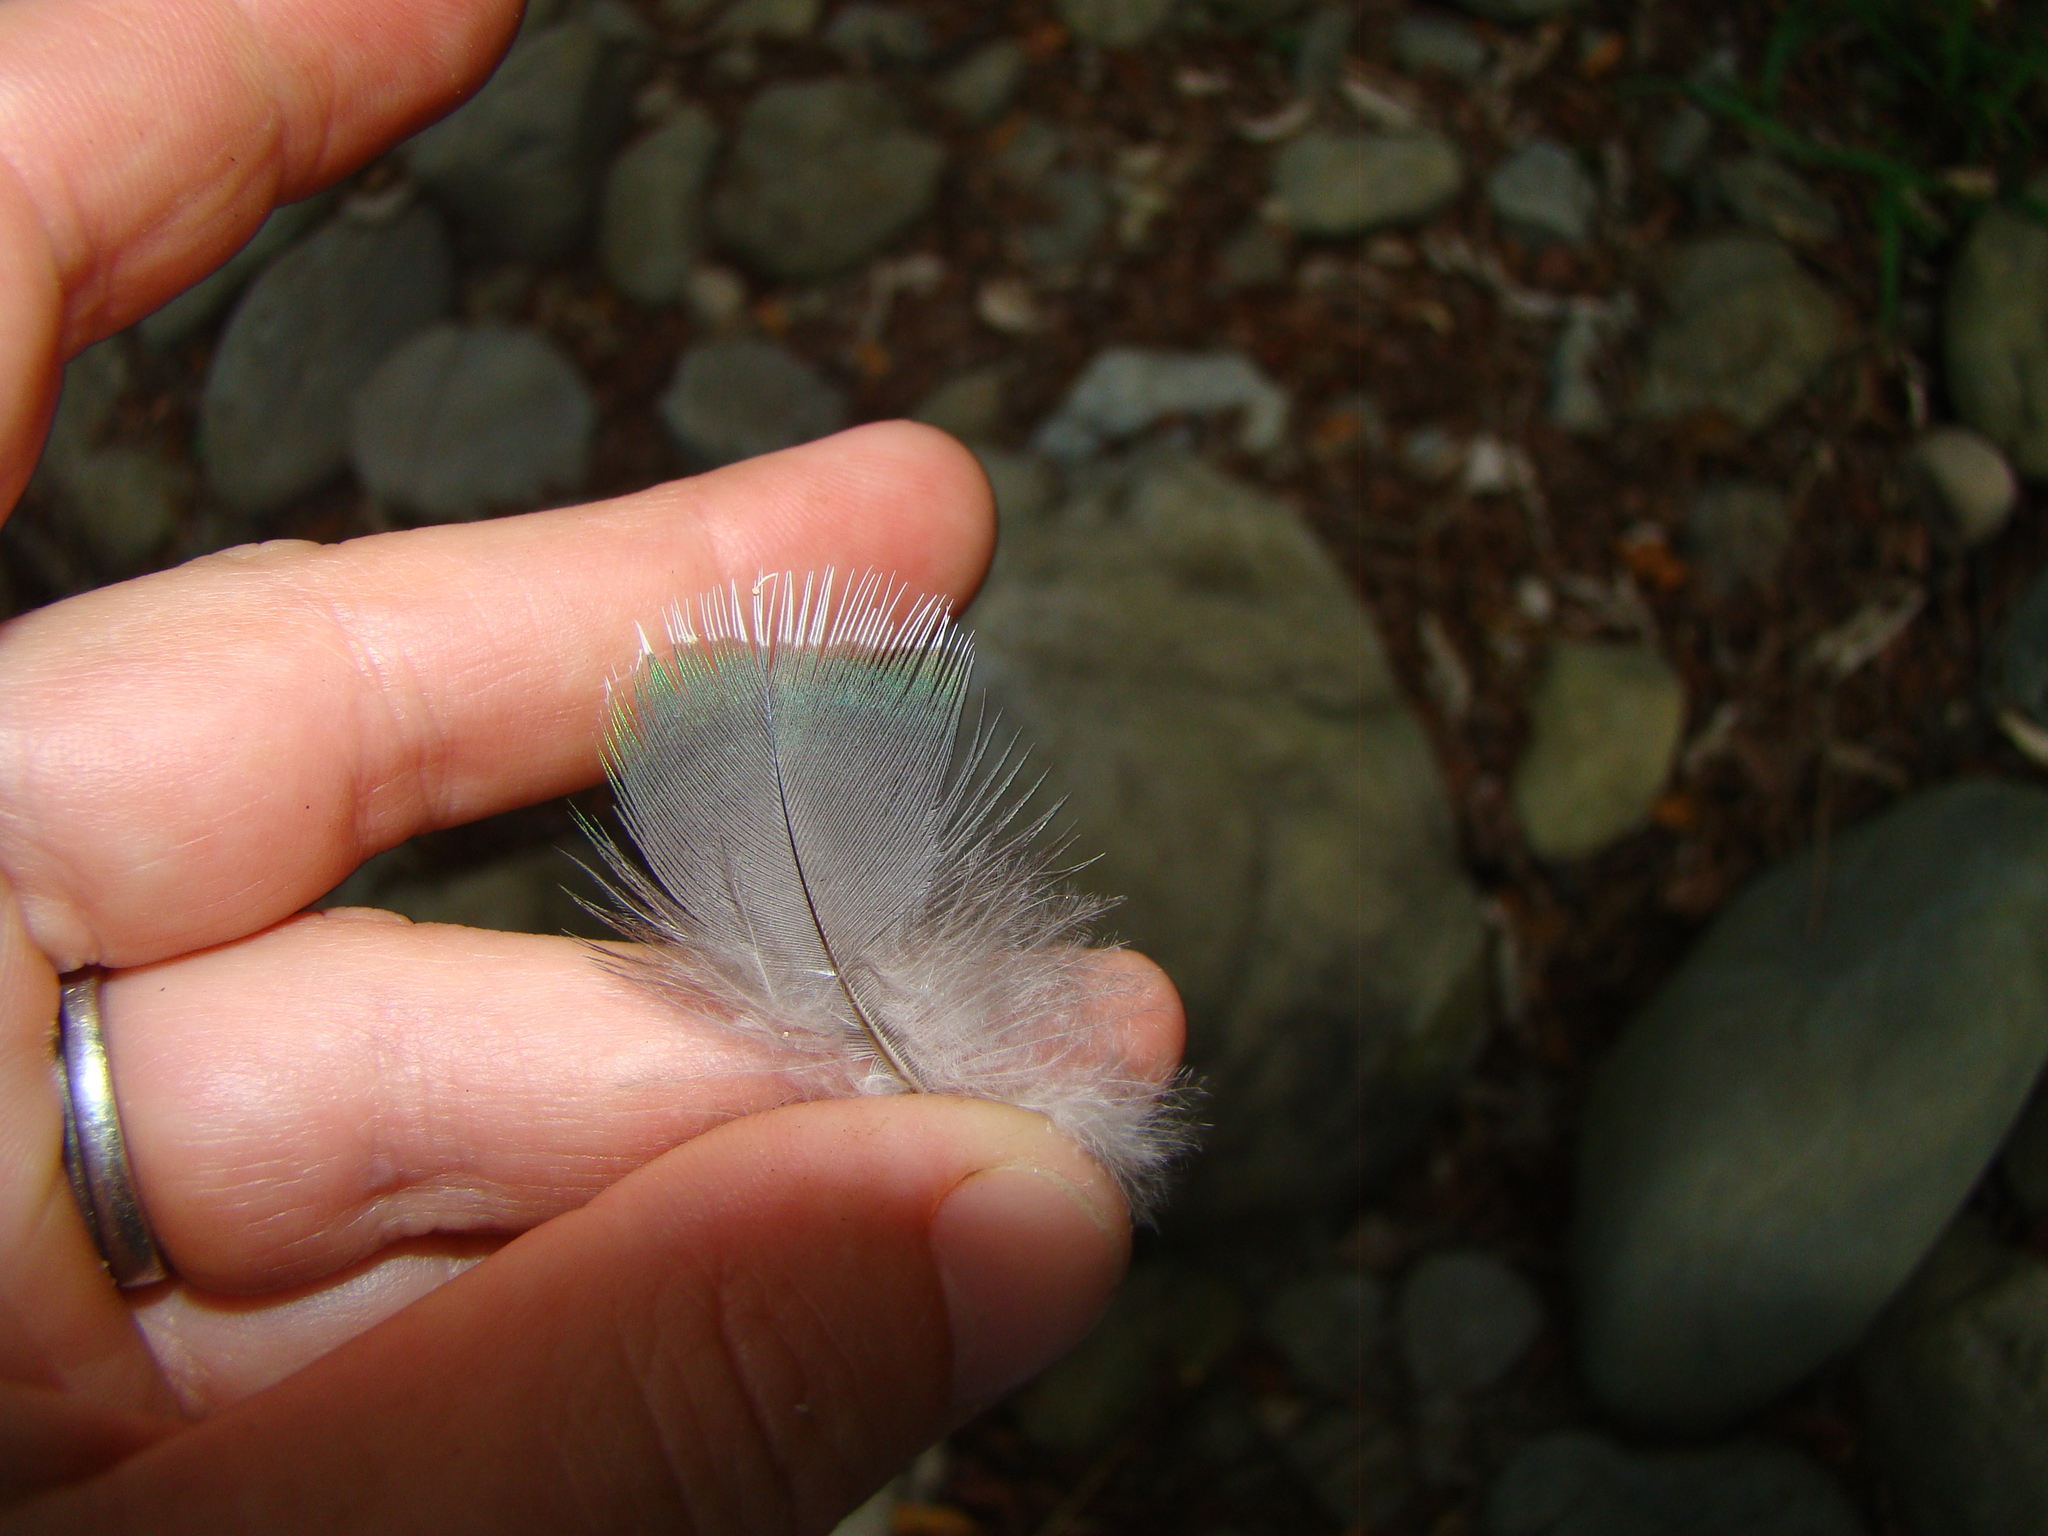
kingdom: Animalia
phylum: Chordata
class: Aves
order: Columbiformes
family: Columbidae
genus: Hemiphaga
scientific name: Hemiphaga novaeseelandiae
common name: New zealand pigeon
